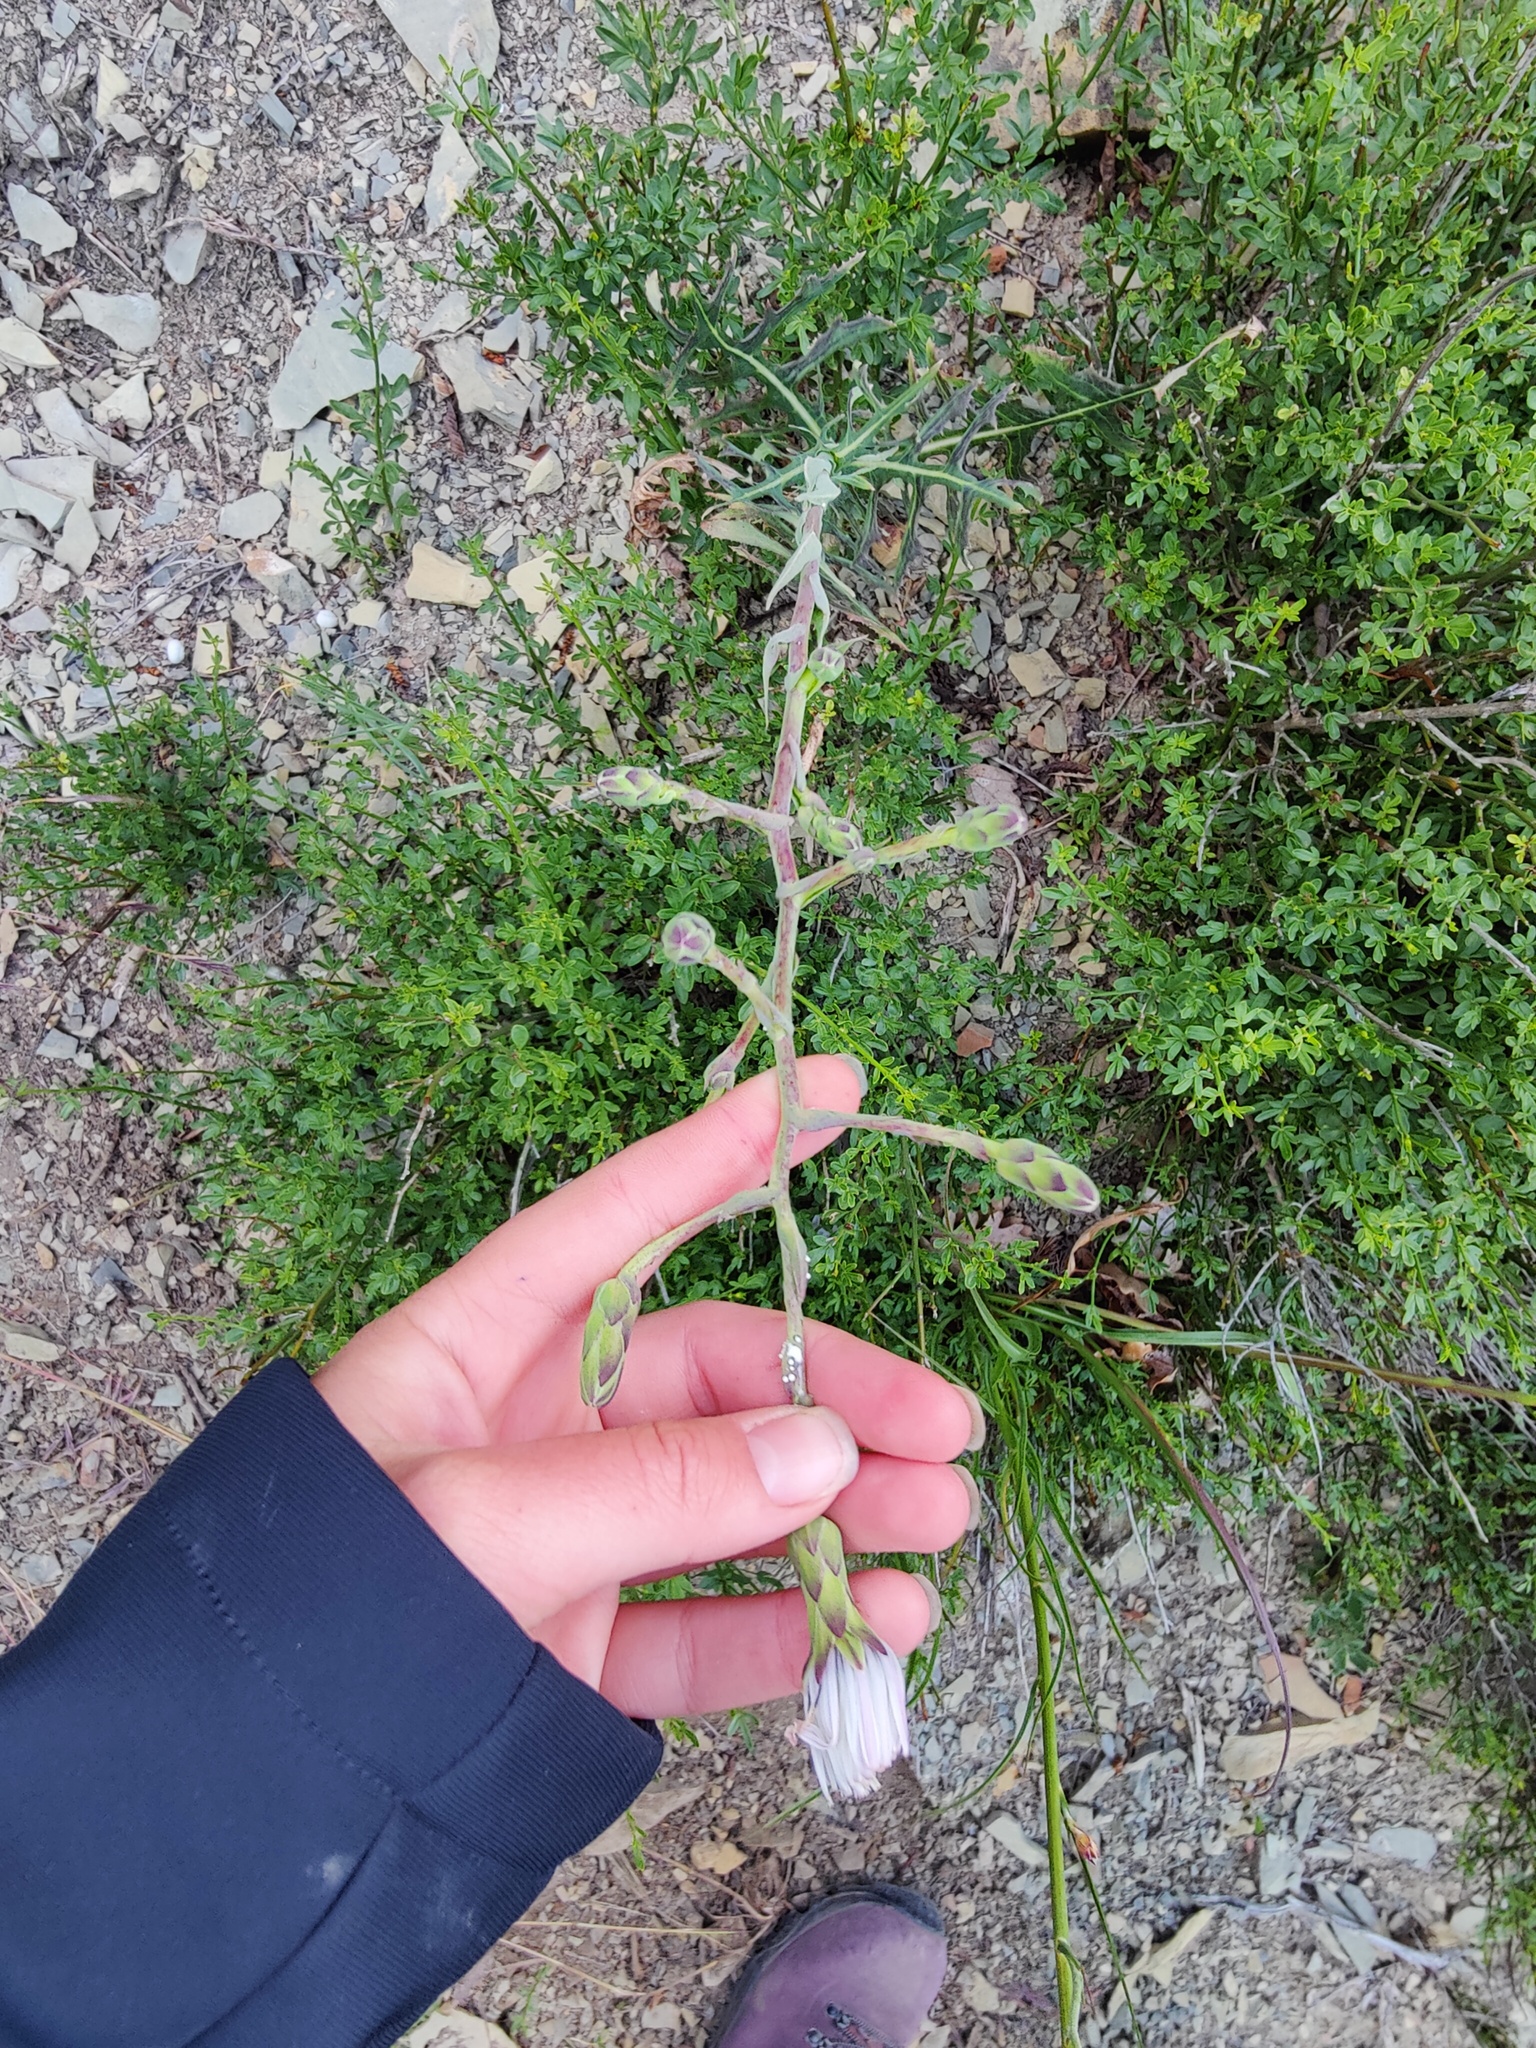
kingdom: Plantae
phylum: Tracheophyta
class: Magnoliopsida
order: Asterales
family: Asteraceae
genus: Lactuca
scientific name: Lactuca tuberosa
